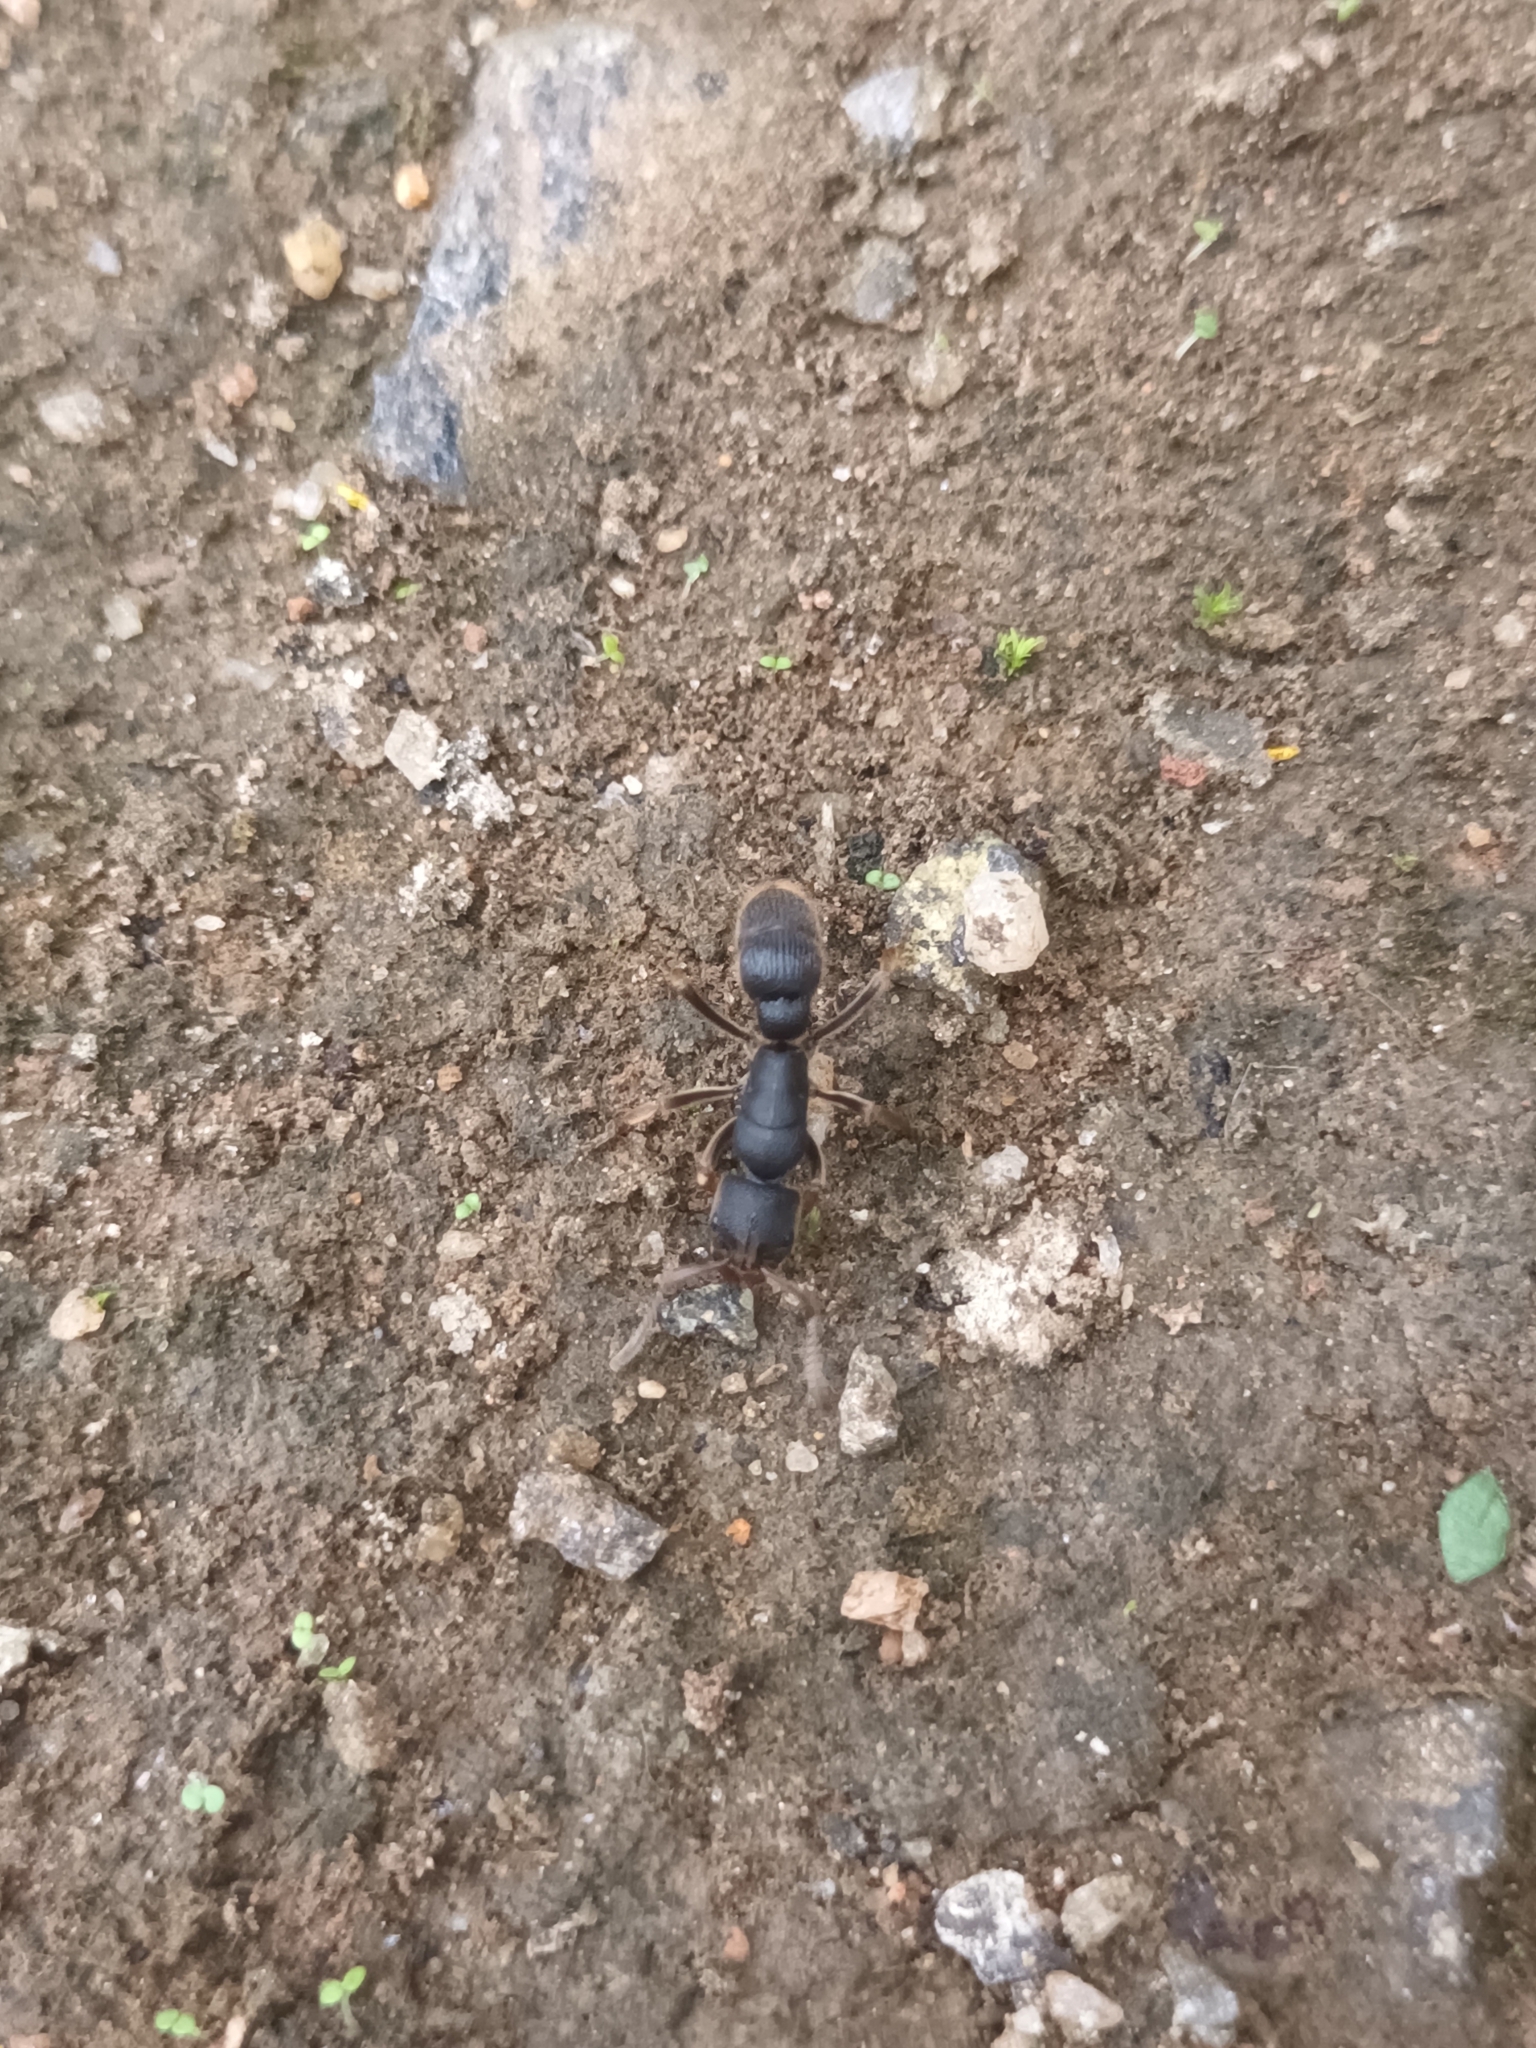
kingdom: Animalia
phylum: Arthropoda
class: Insecta
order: Hymenoptera
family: Formicidae
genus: Pseudoneoponera
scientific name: Pseudoneoponera rufipes
